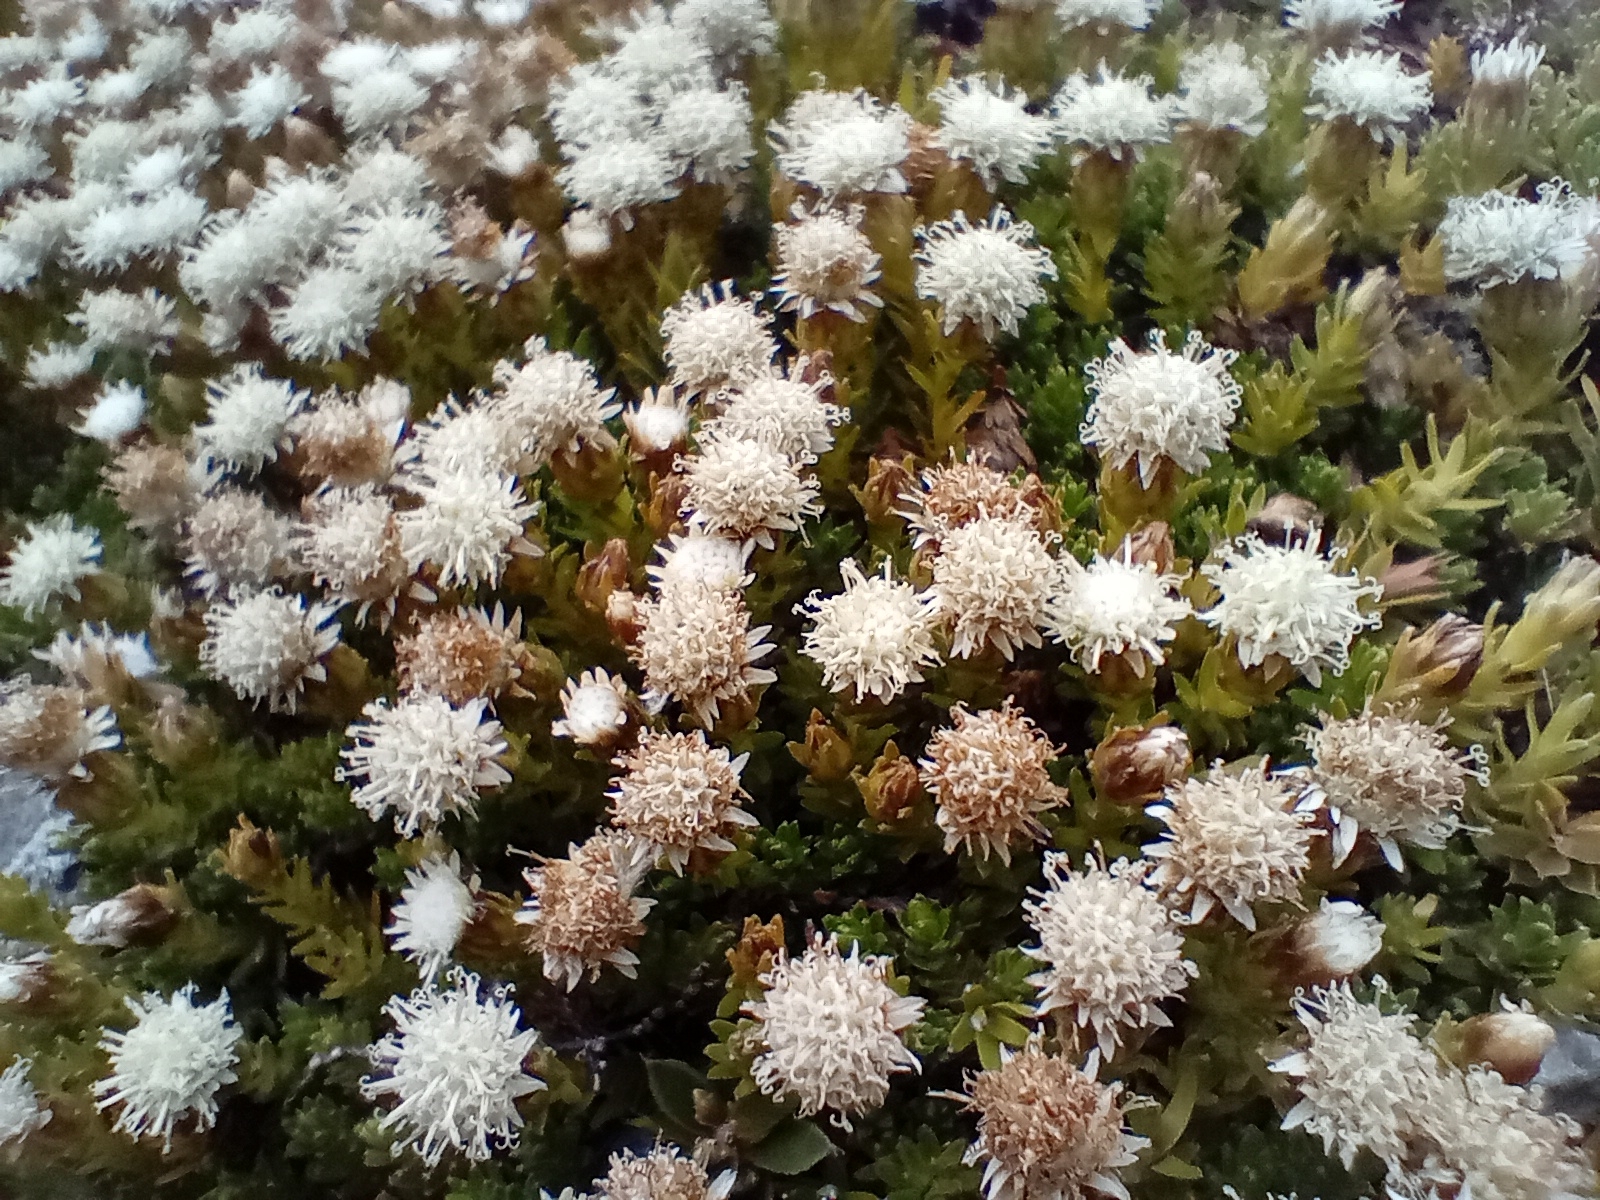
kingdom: Plantae
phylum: Tracheophyta
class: Magnoliopsida
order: Asterales
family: Asteraceae
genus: Raoulia
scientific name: Raoulia glabra
